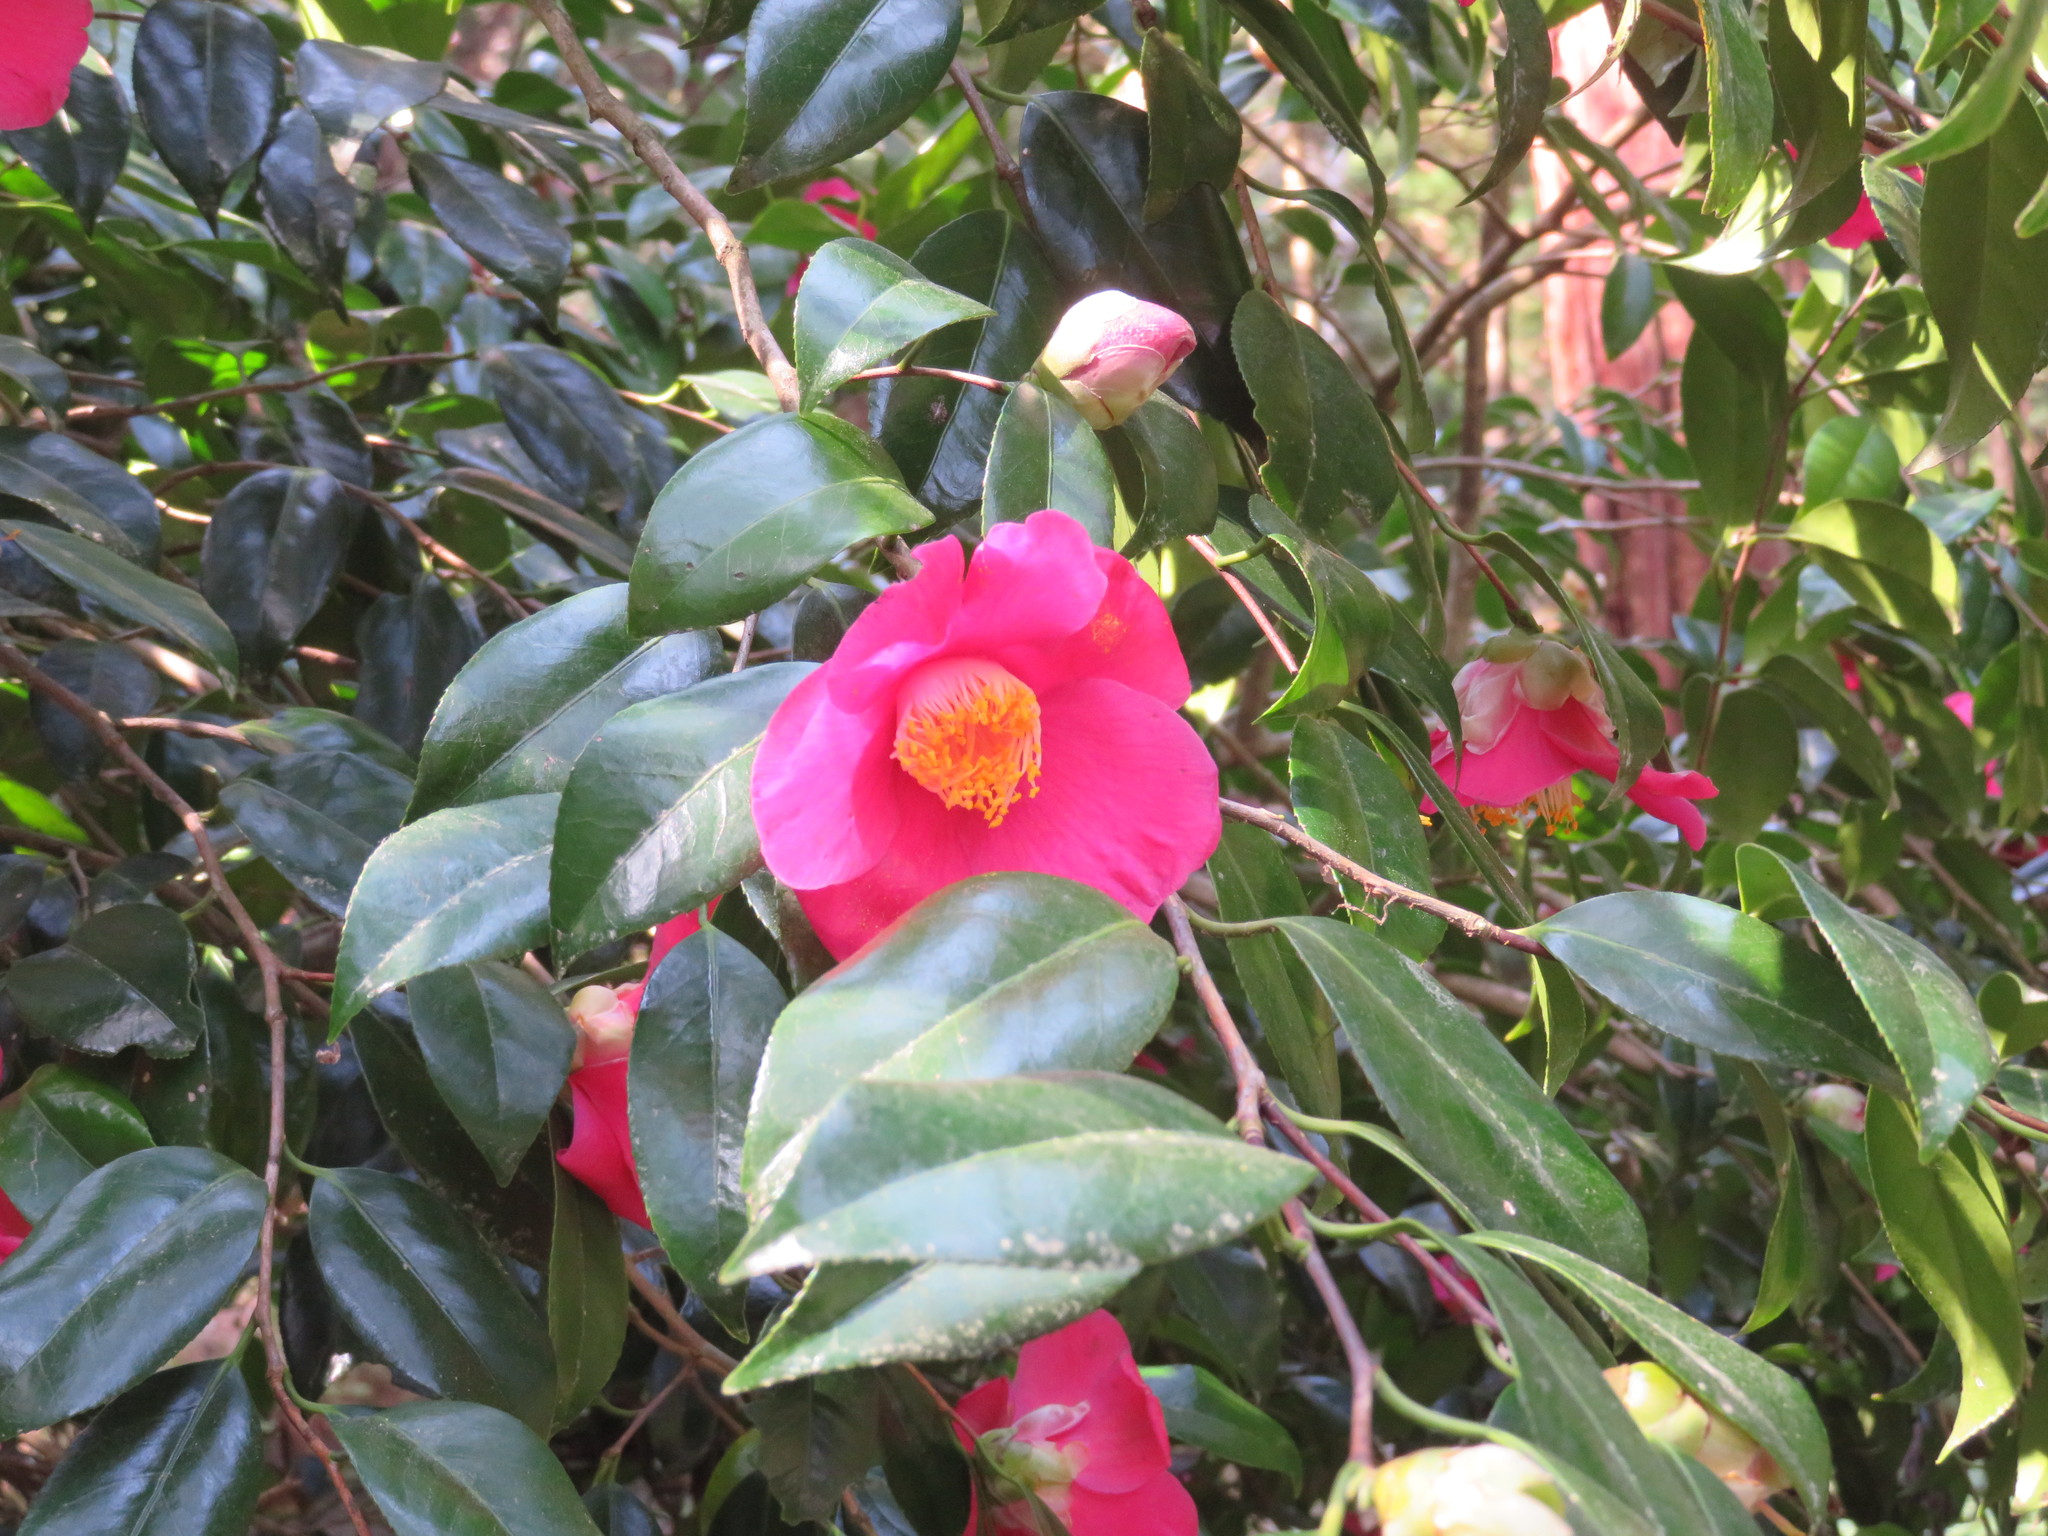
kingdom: Plantae
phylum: Tracheophyta
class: Magnoliopsida
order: Ericales
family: Theaceae
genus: Camellia
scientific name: Camellia japonica
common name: Camellia
